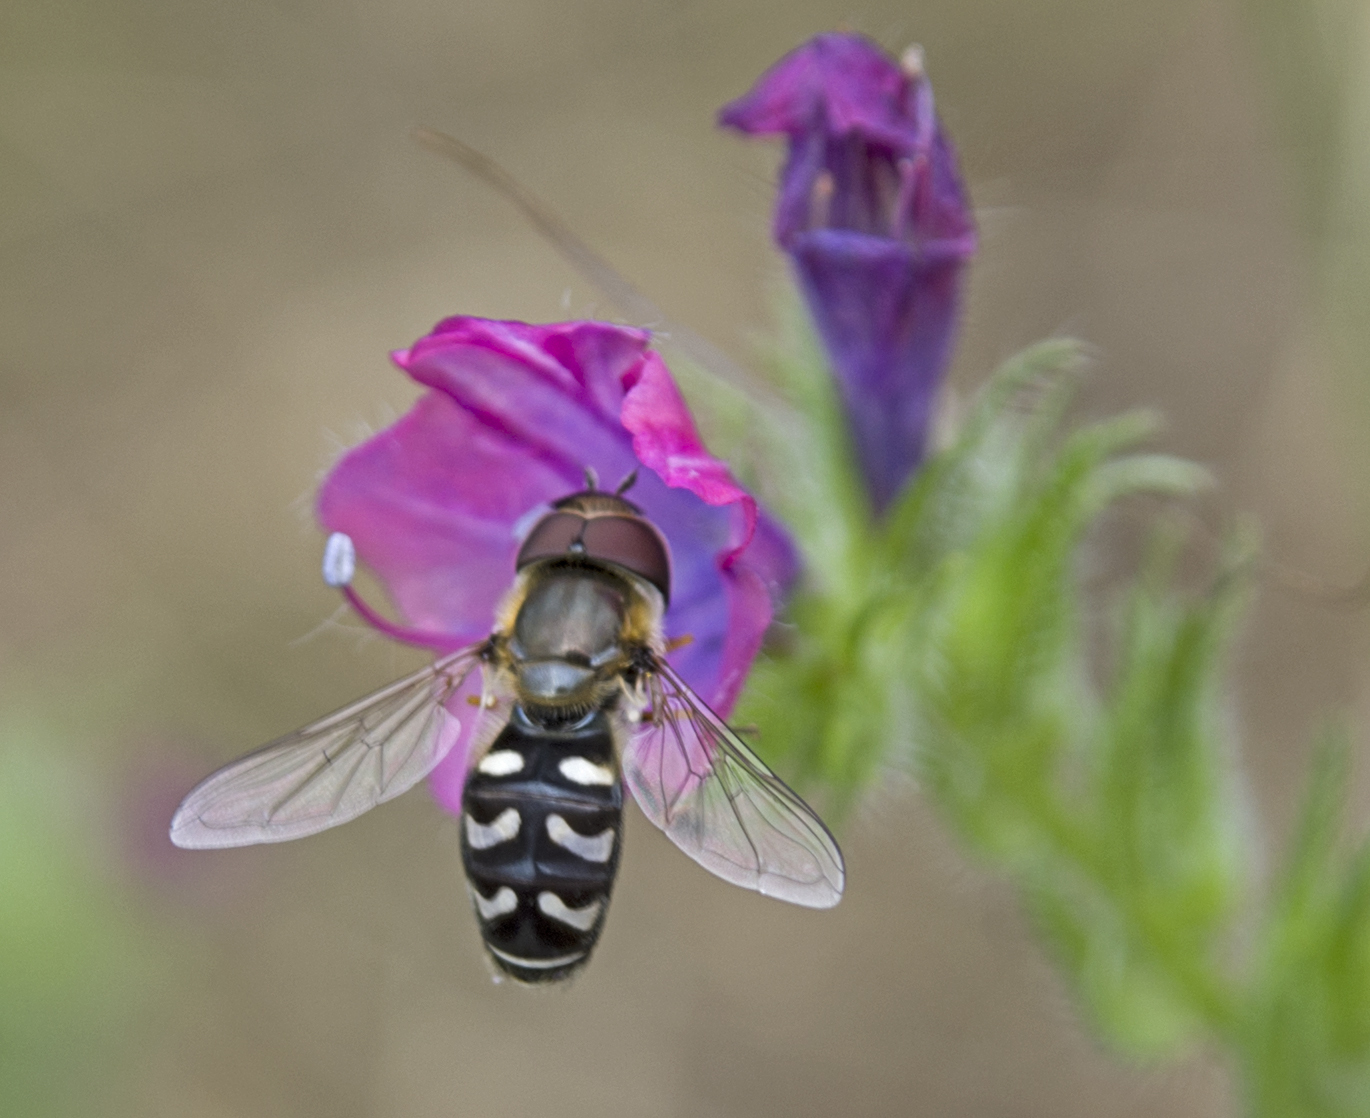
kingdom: Animalia
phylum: Arthropoda
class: Insecta
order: Diptera
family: Syrphidae
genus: Scaeva
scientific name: Scaeva pyrastri
